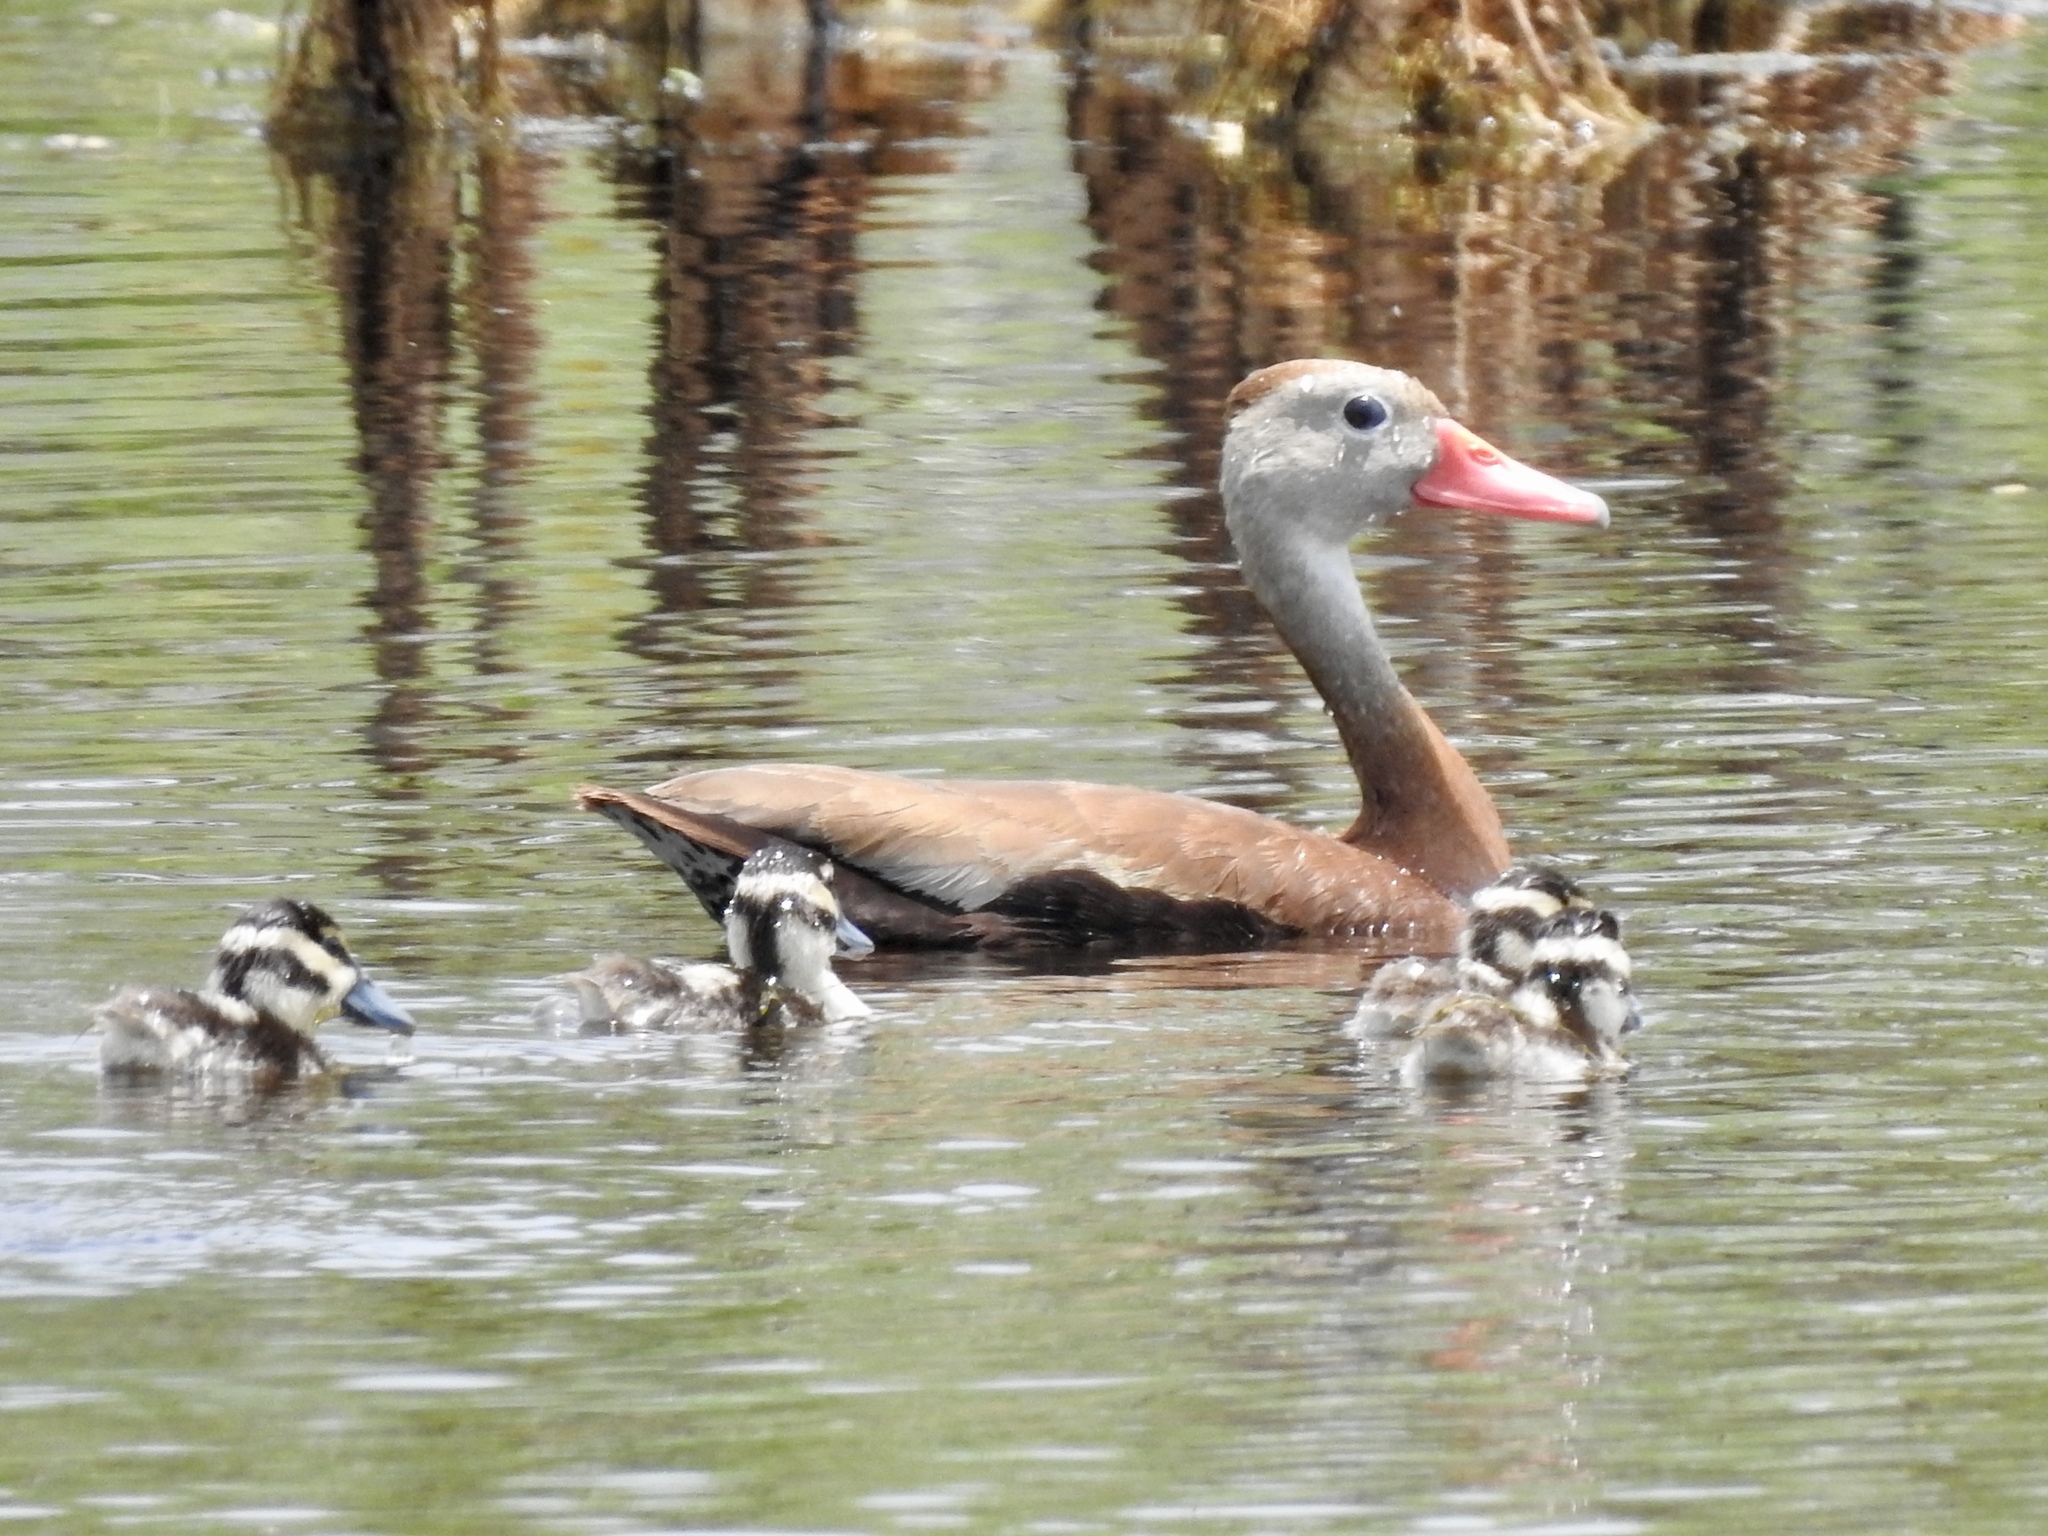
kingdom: Animalia
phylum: Chordata
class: Aves
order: Anseriformes
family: Anatidae
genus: Dendrocygna
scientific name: Dendrocygna autumnalis
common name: Black-bellied whistling duck
